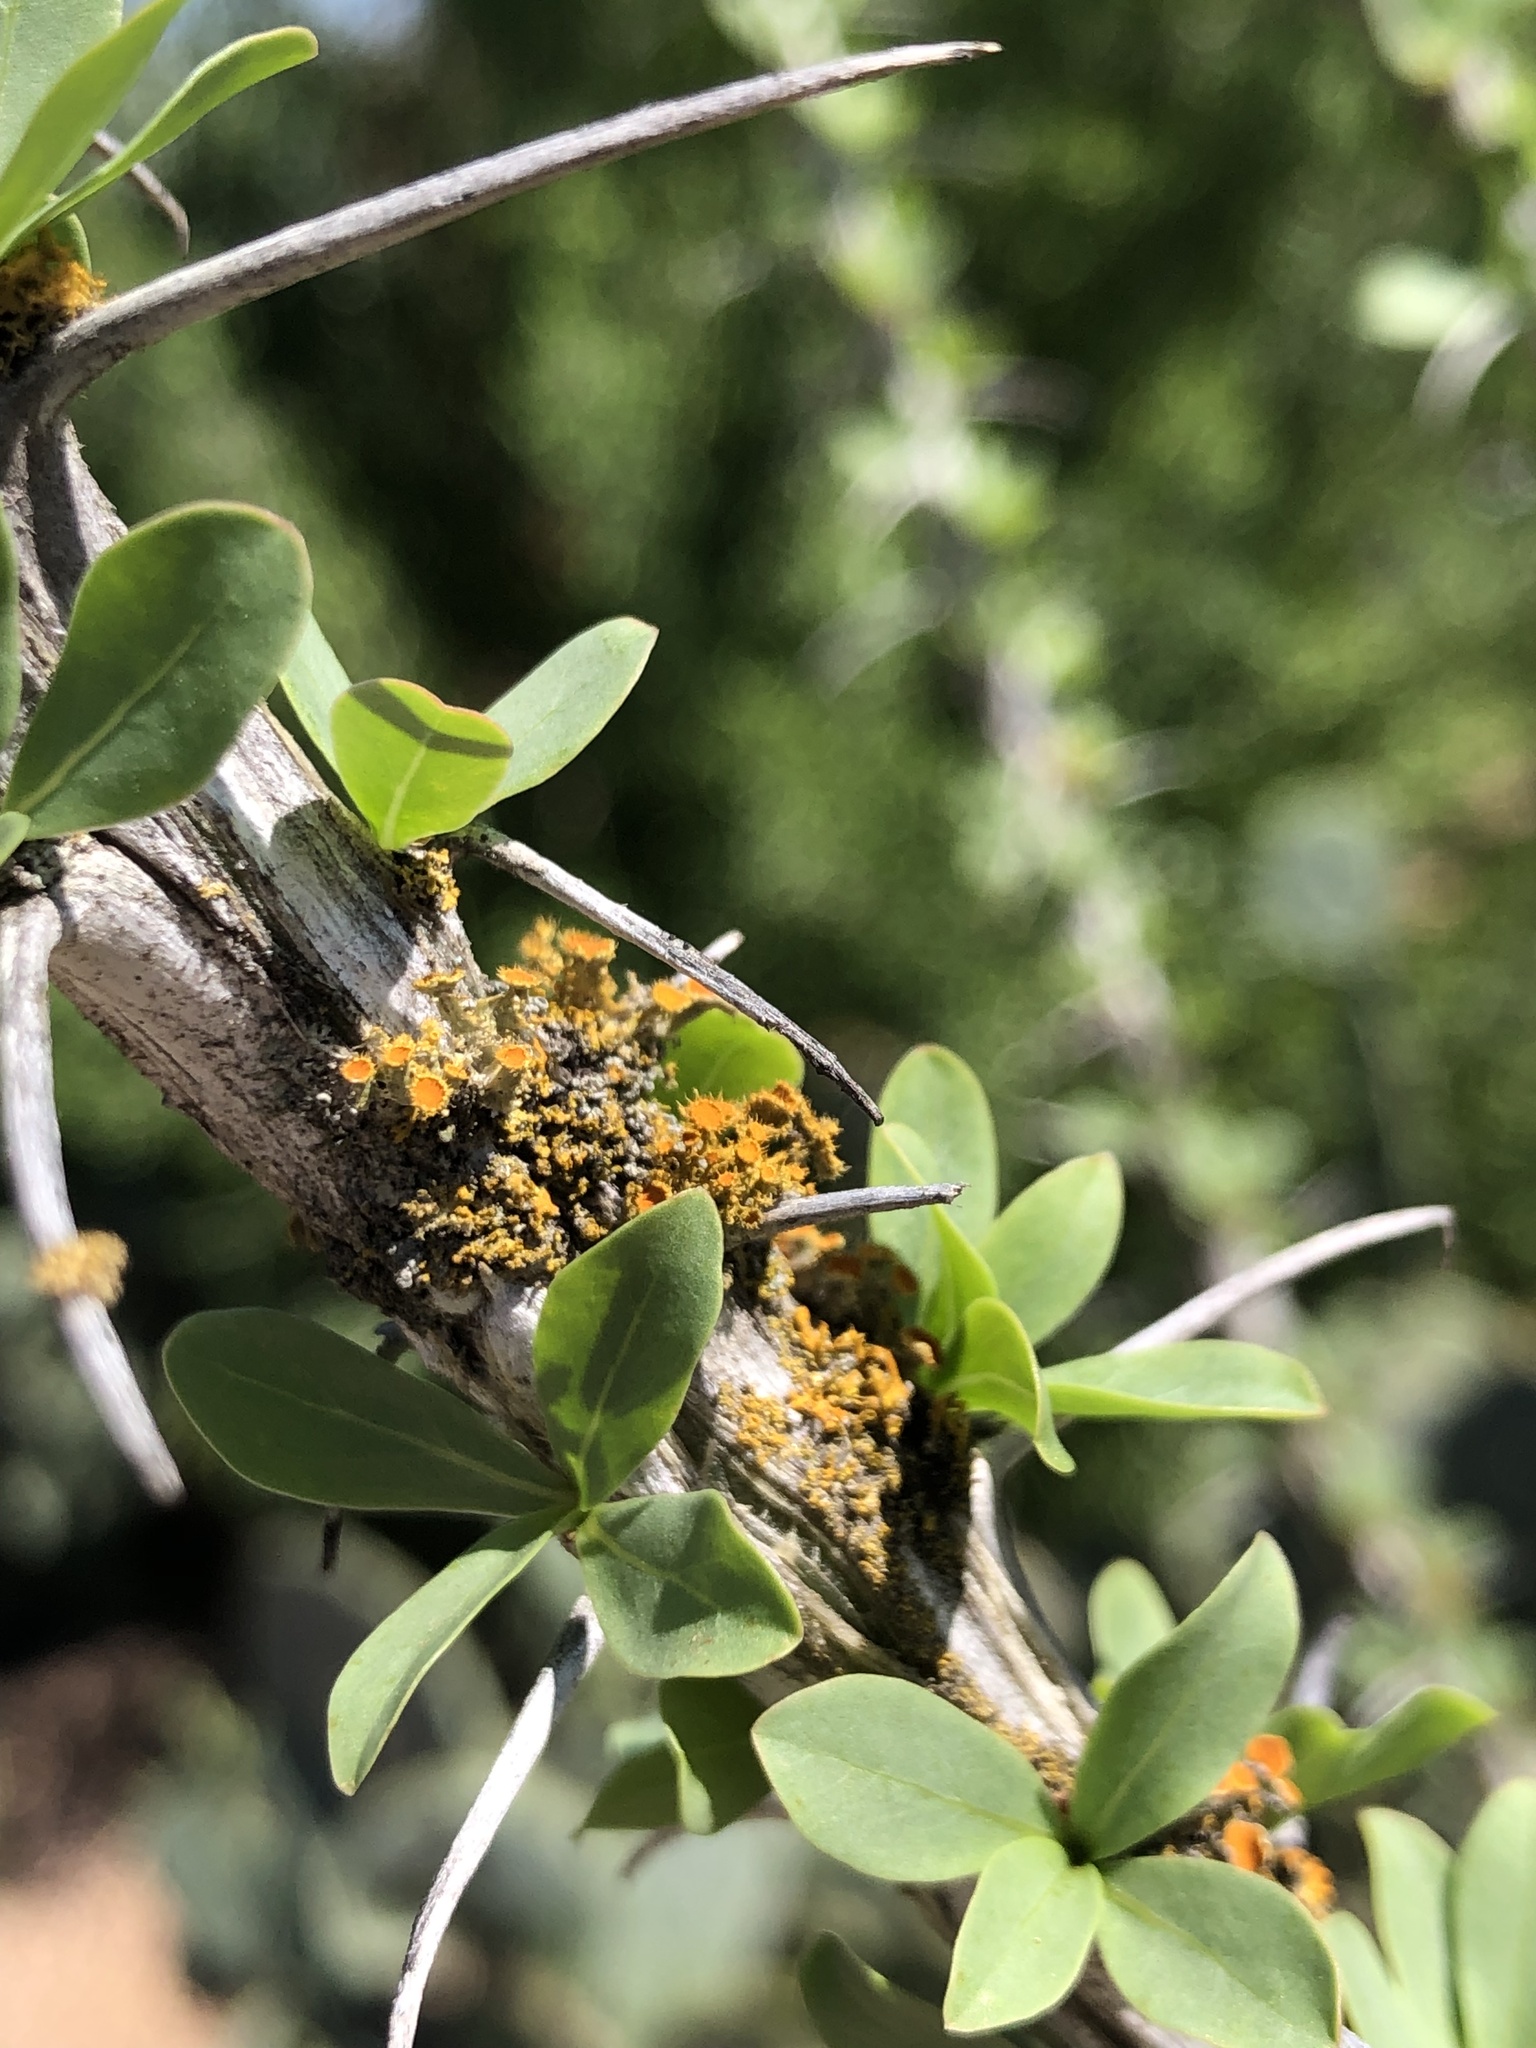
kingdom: Fungi
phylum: Ascomycota
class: Lecanoromycetes
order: Teloschistales
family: Teloschistaceae
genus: Niorma
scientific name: Niorma chrysophthalma
